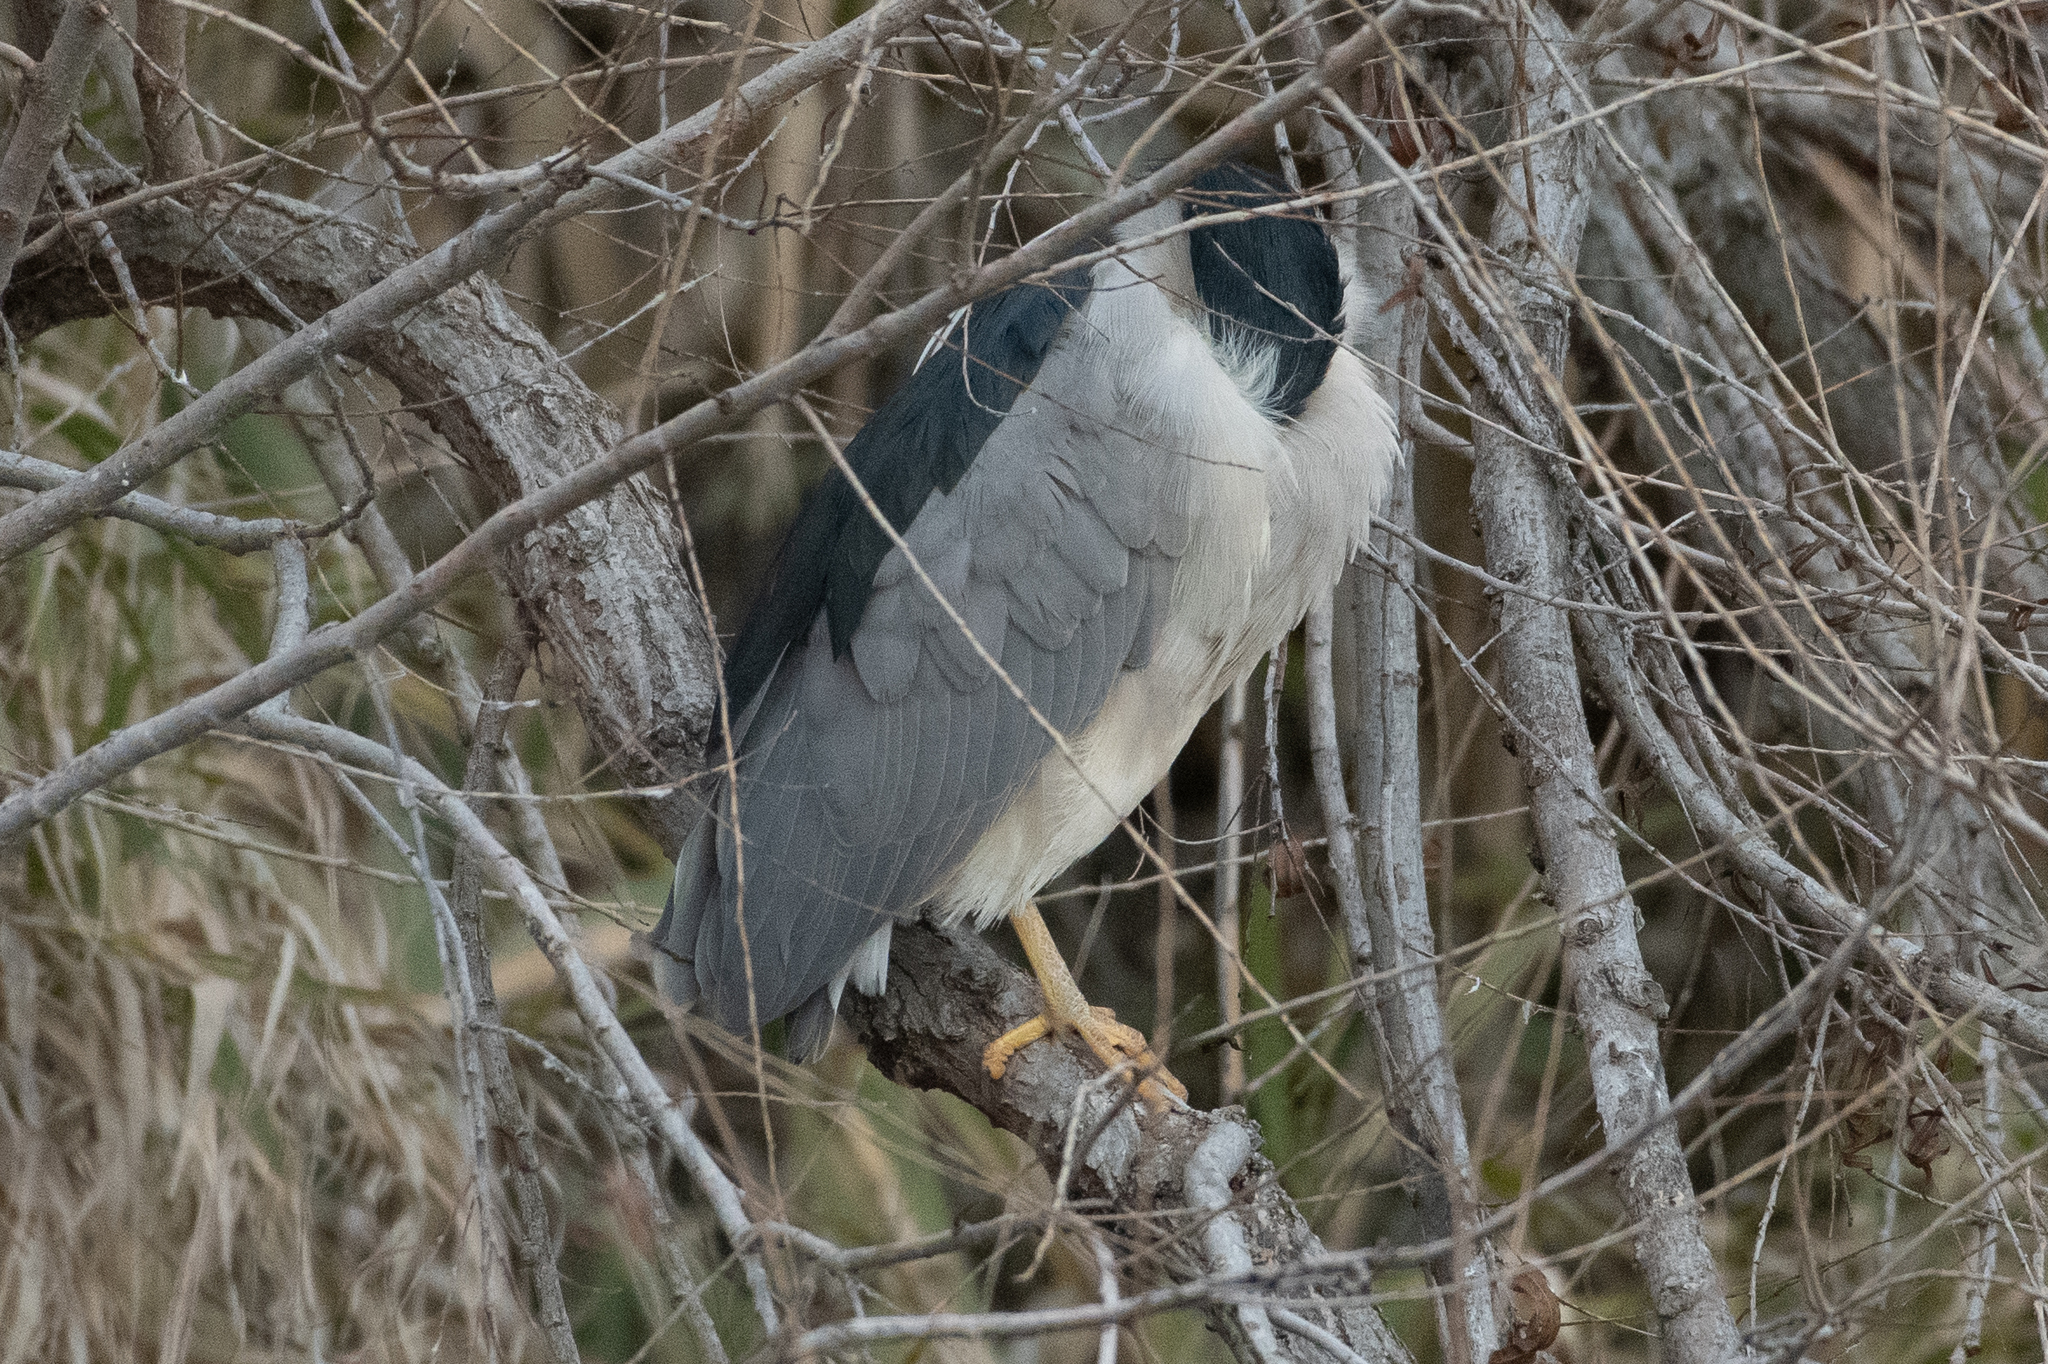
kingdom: Animalia
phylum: Chordata
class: Aves
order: Pelecaniformes
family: Ardeidae
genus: Nycticorax
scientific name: Nycticorax nycticorax
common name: Black-crowned night heron
